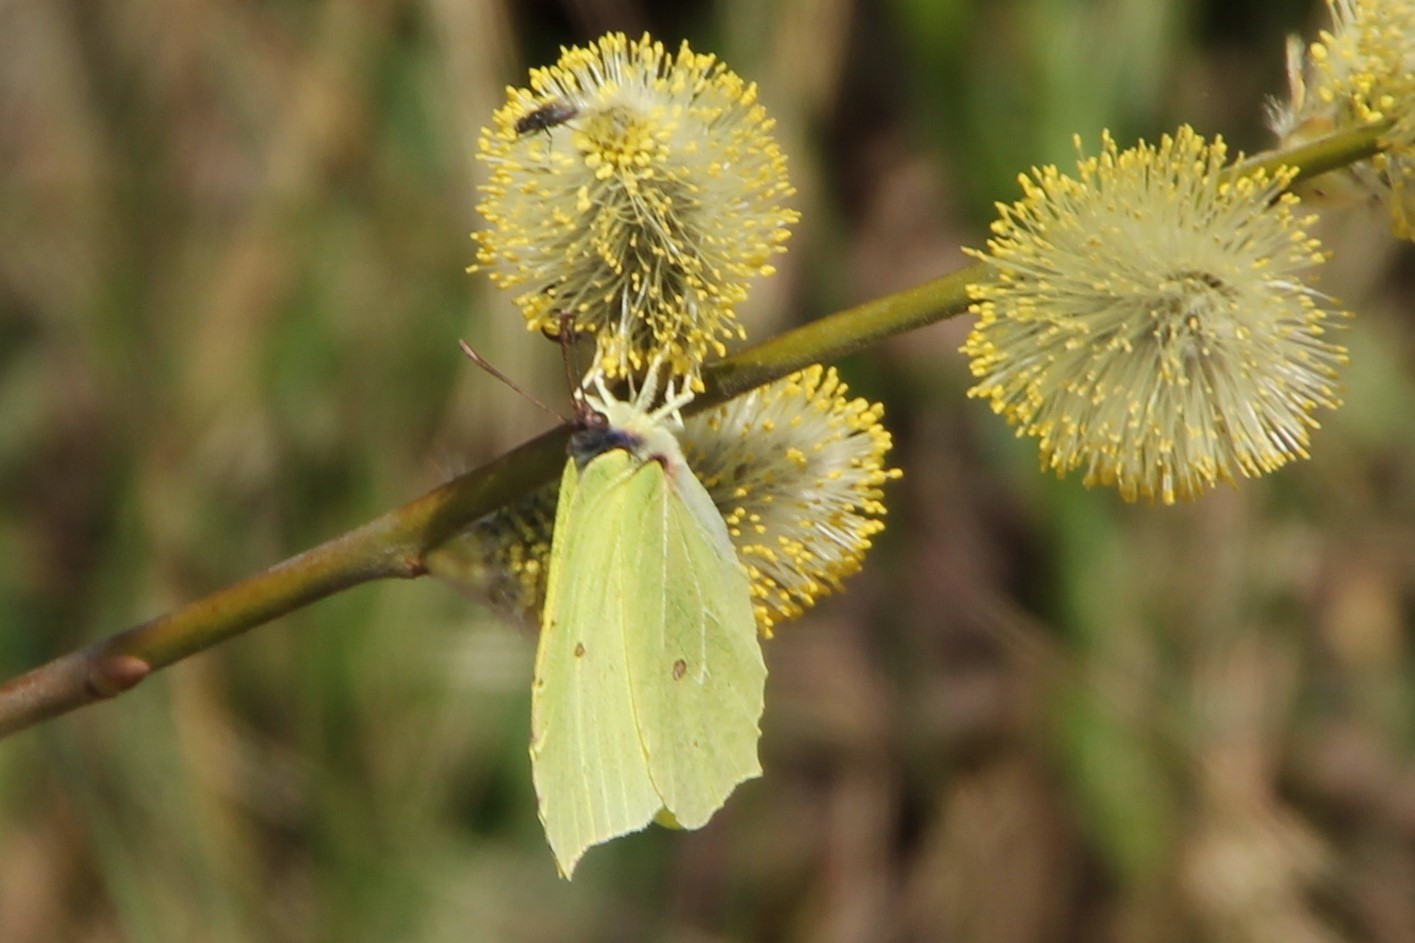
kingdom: Animalia
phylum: Arthropoda
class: Insecta
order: Lepidoptera
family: Pieridae
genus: Gonepteryx
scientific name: Gonepteryx rhamni
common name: Brimstone
